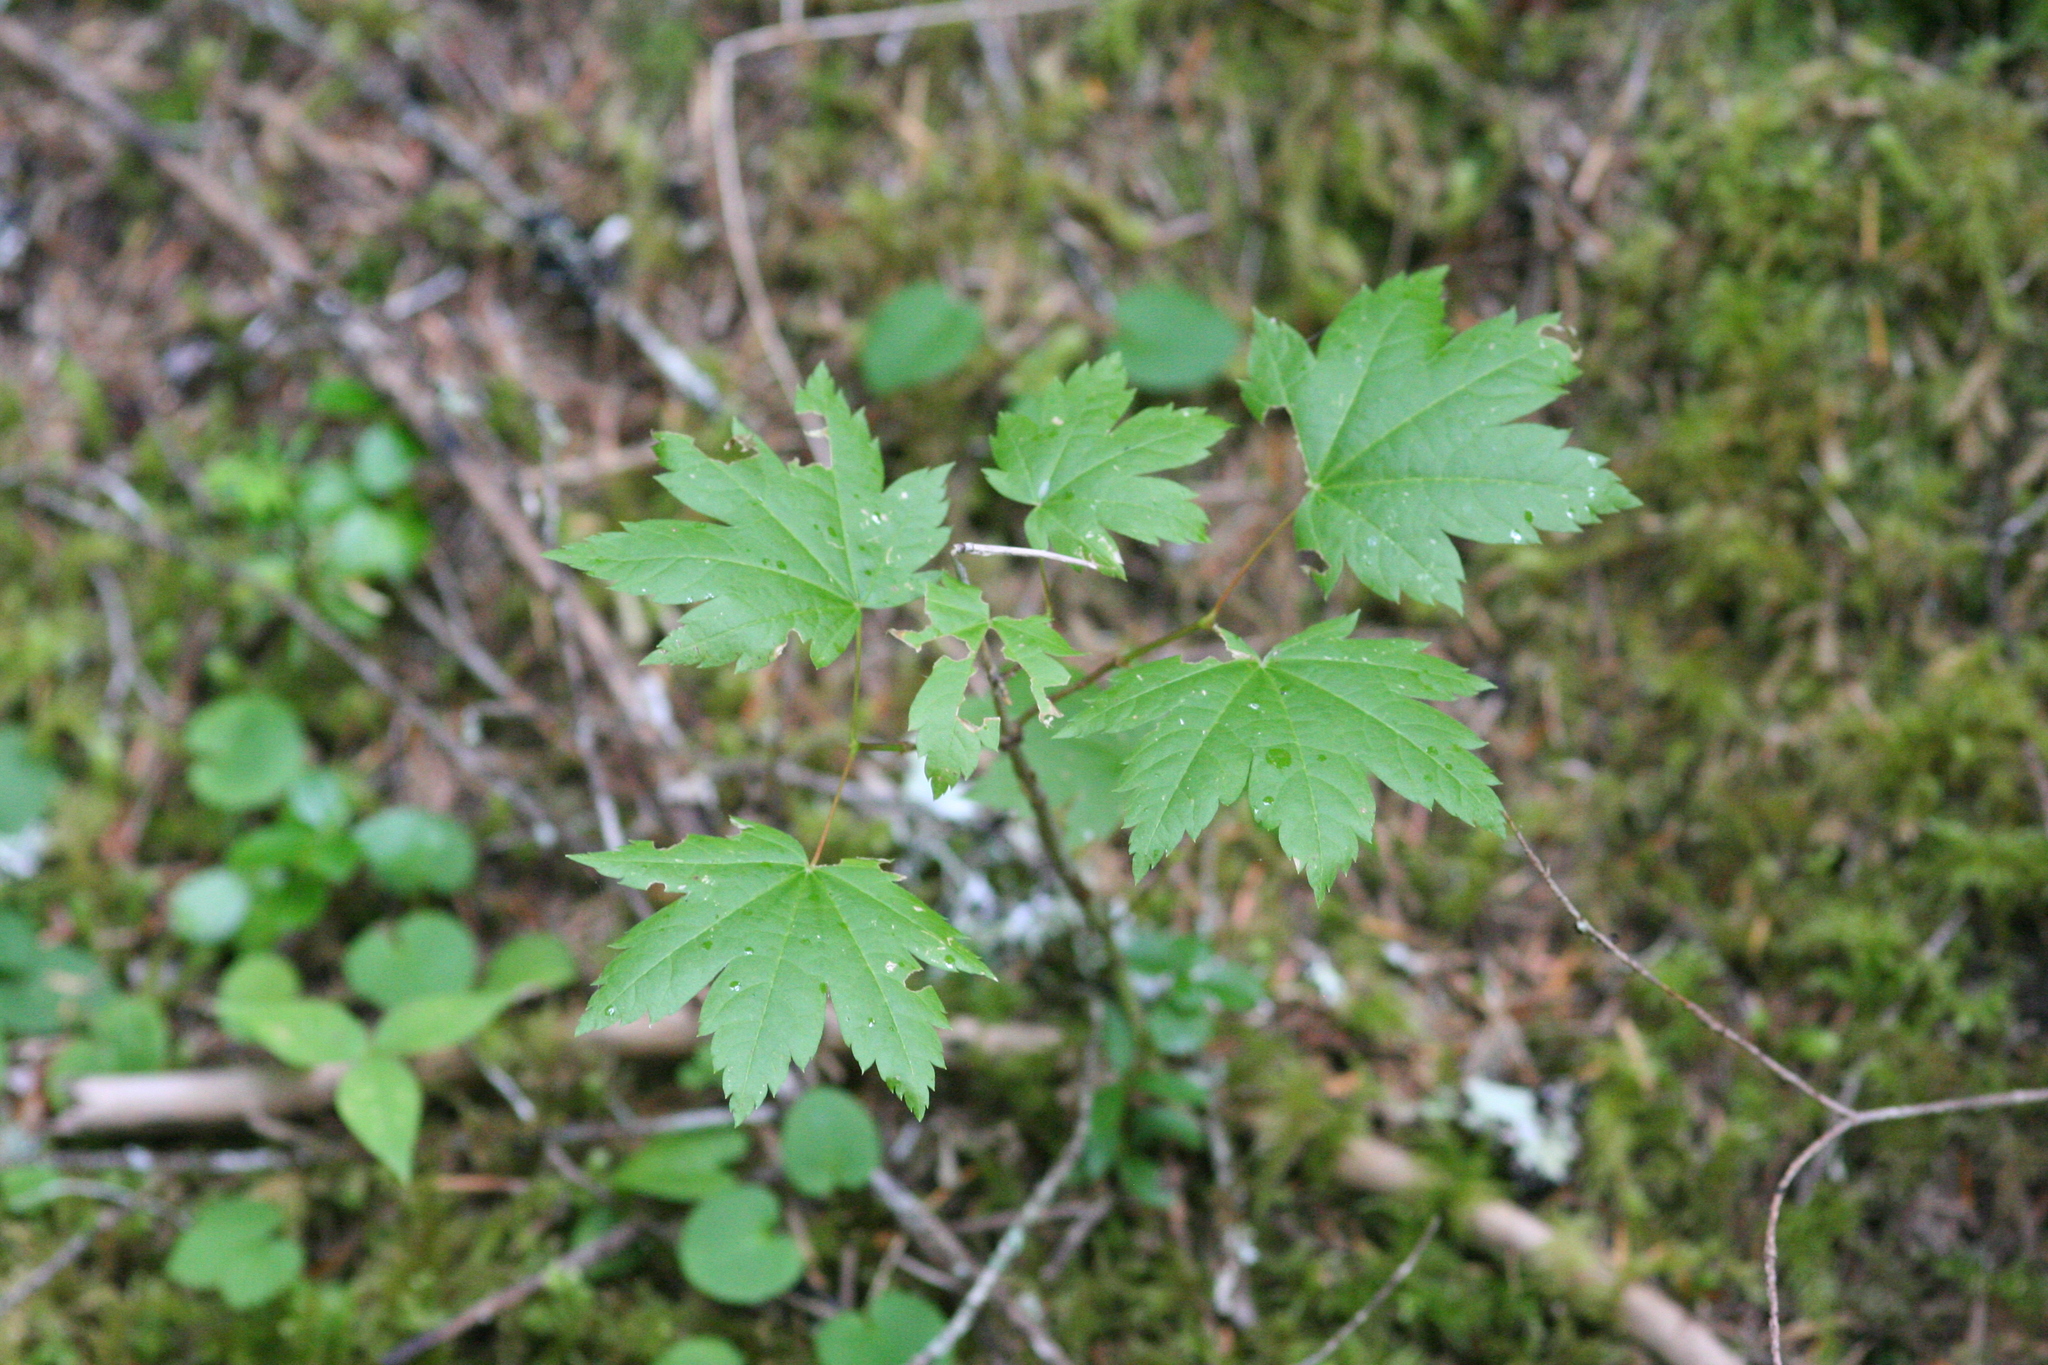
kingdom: Plantae
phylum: Tracheophyta
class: Magnoliopsida
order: Sapindales
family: Sapindaceae
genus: Acer
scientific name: Acer circinatum
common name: Vine maple
